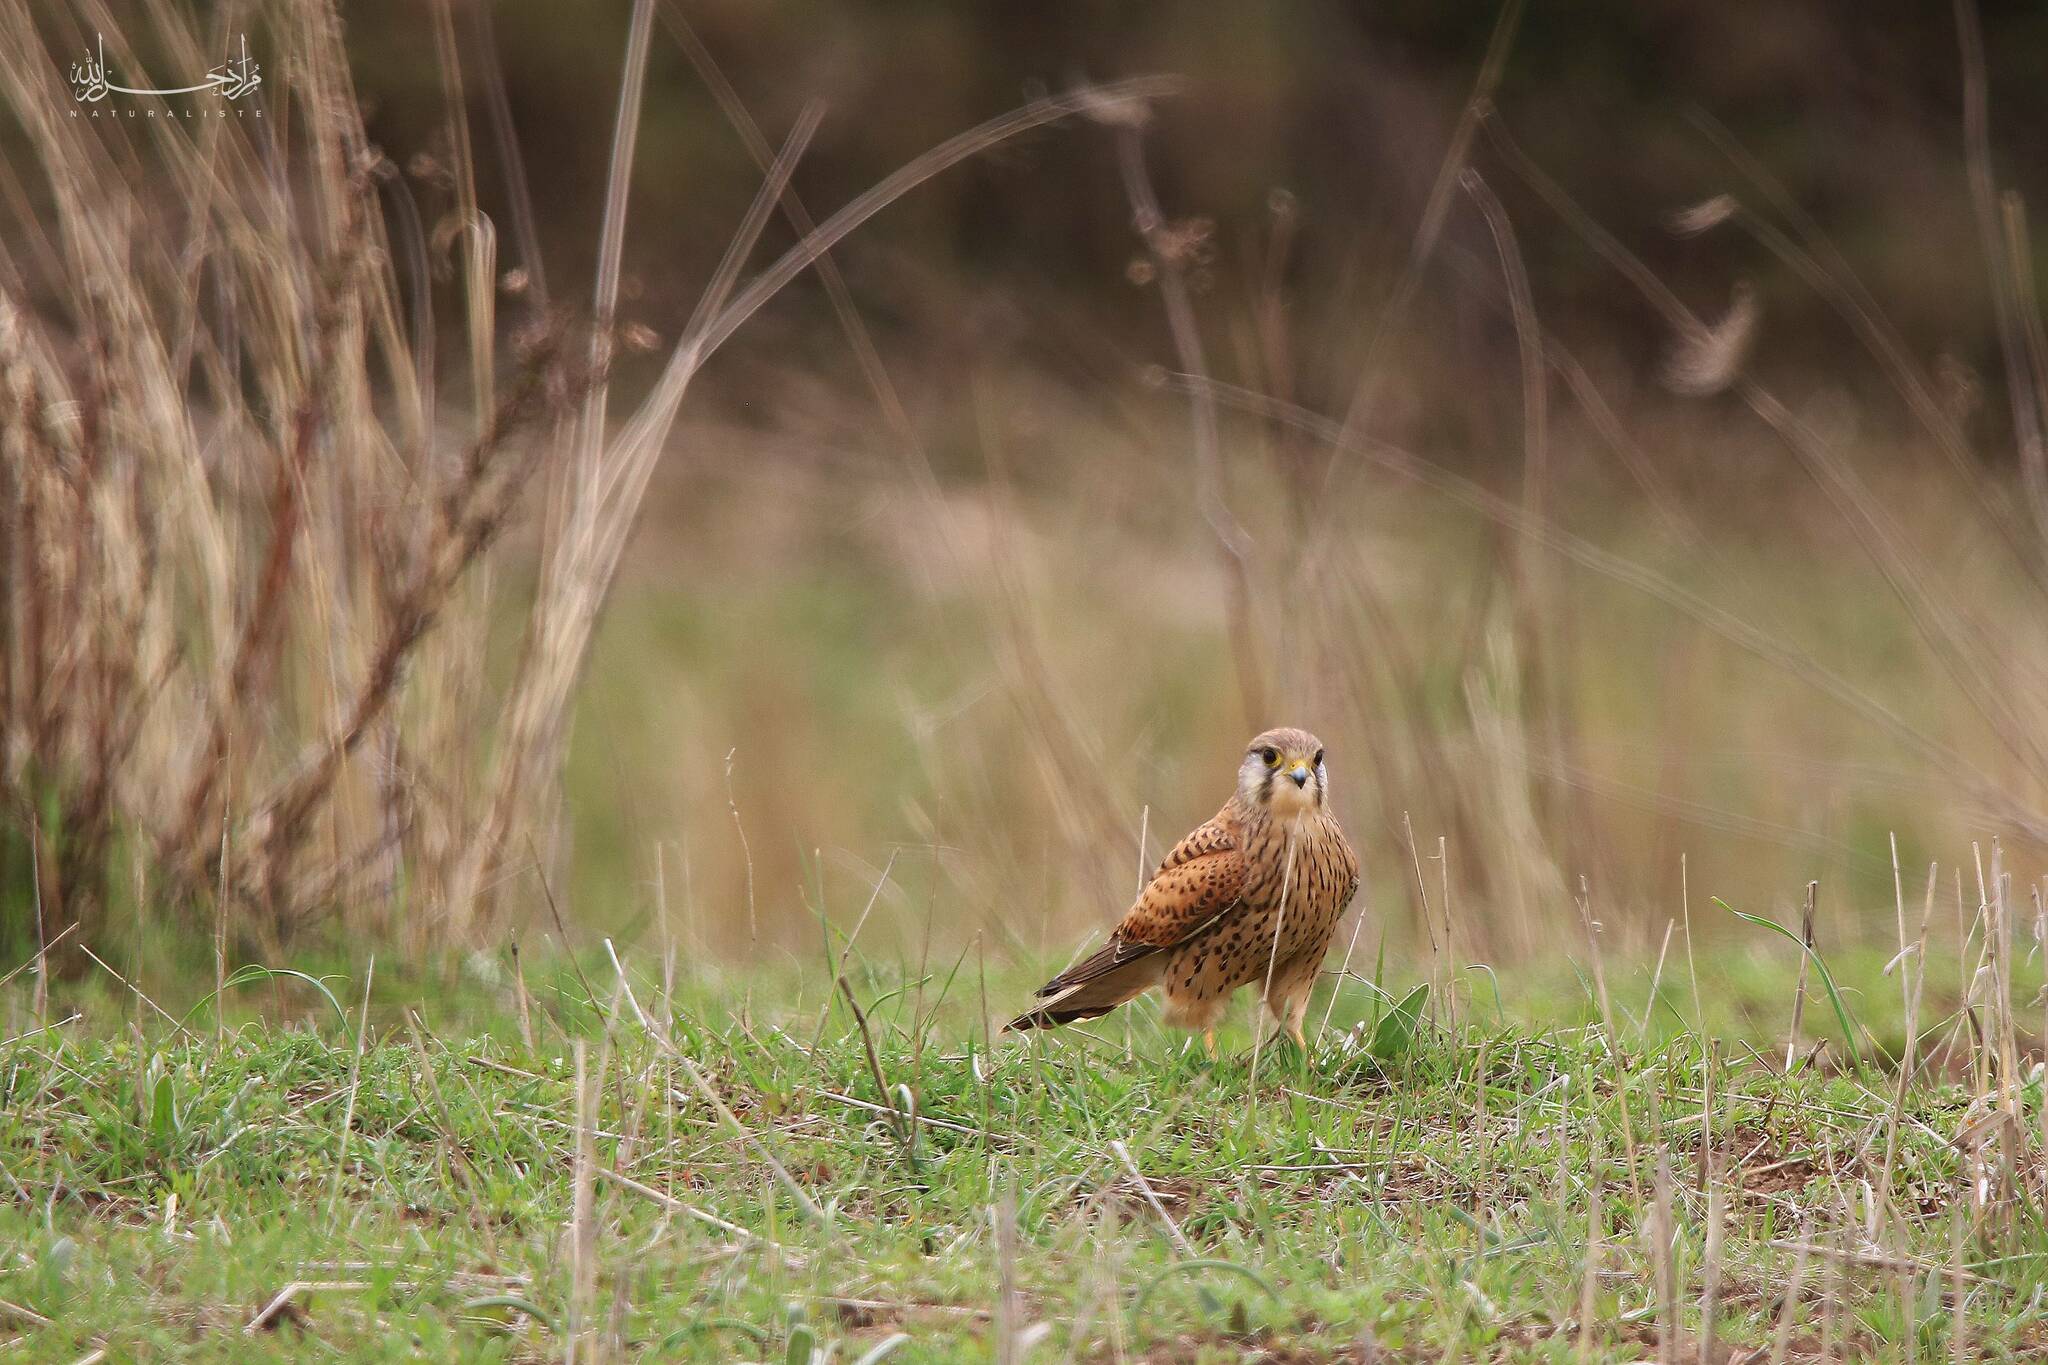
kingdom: Animalia
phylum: Chordata
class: Aves
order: Falconiformes
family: Falconidae
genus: Falco
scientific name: Falco tinnunculus
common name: Common kestrel
